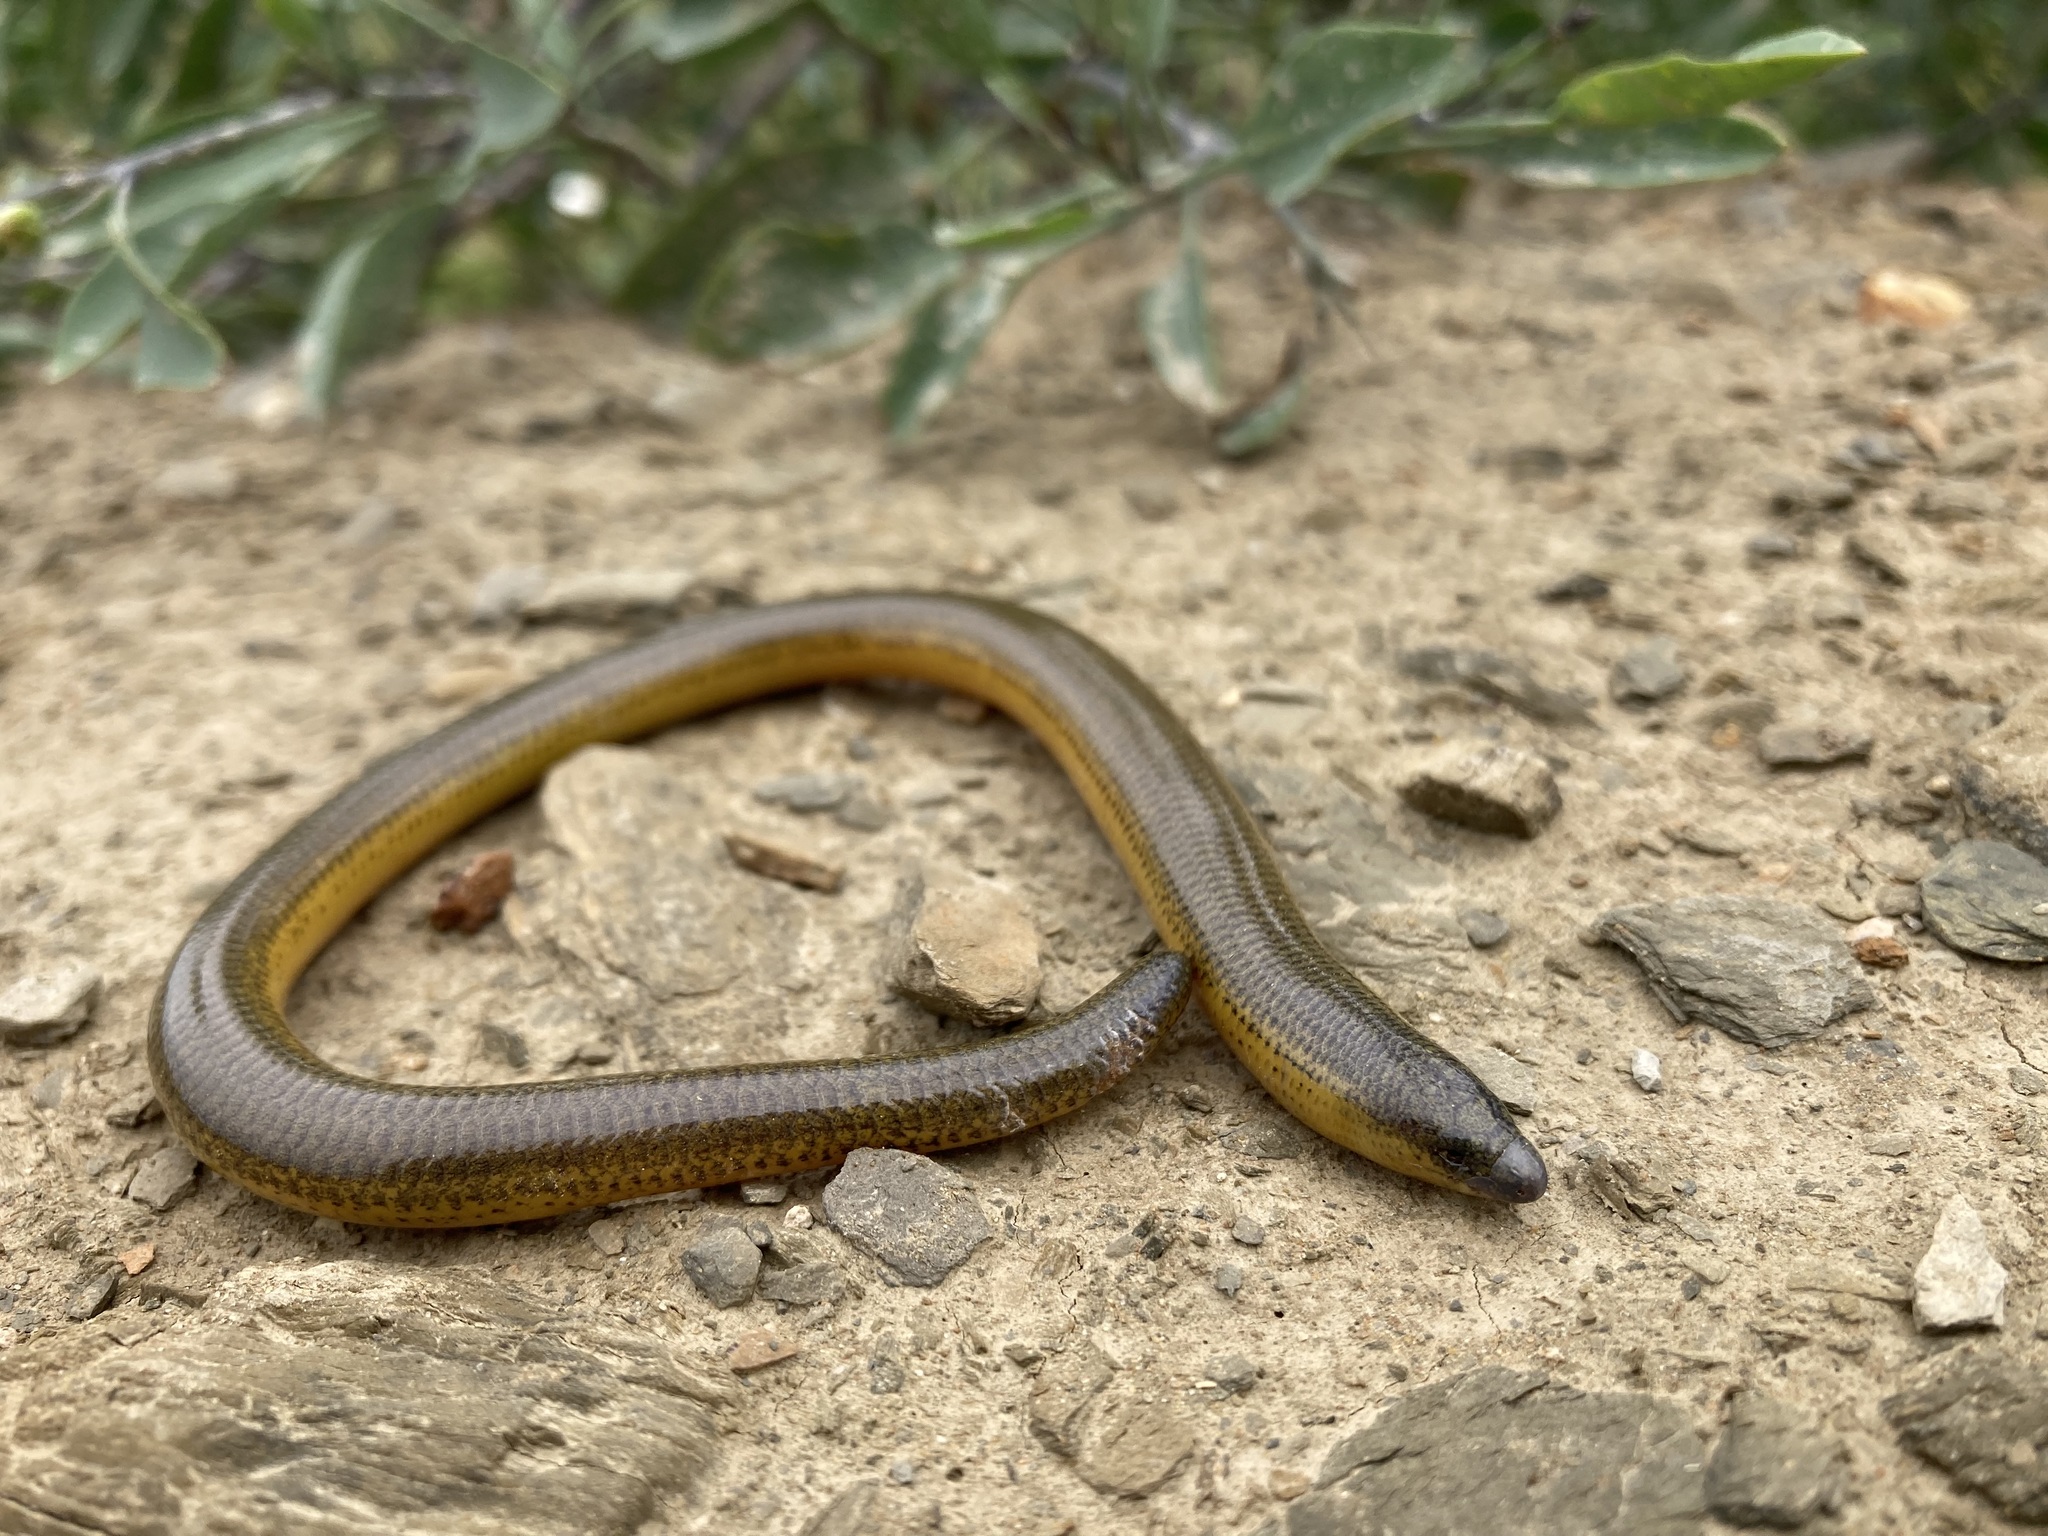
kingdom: Animalia
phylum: Chordata
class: Squamata
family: Scincidae
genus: Acontias
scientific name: Acontias meleagris
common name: Cape legless skink
